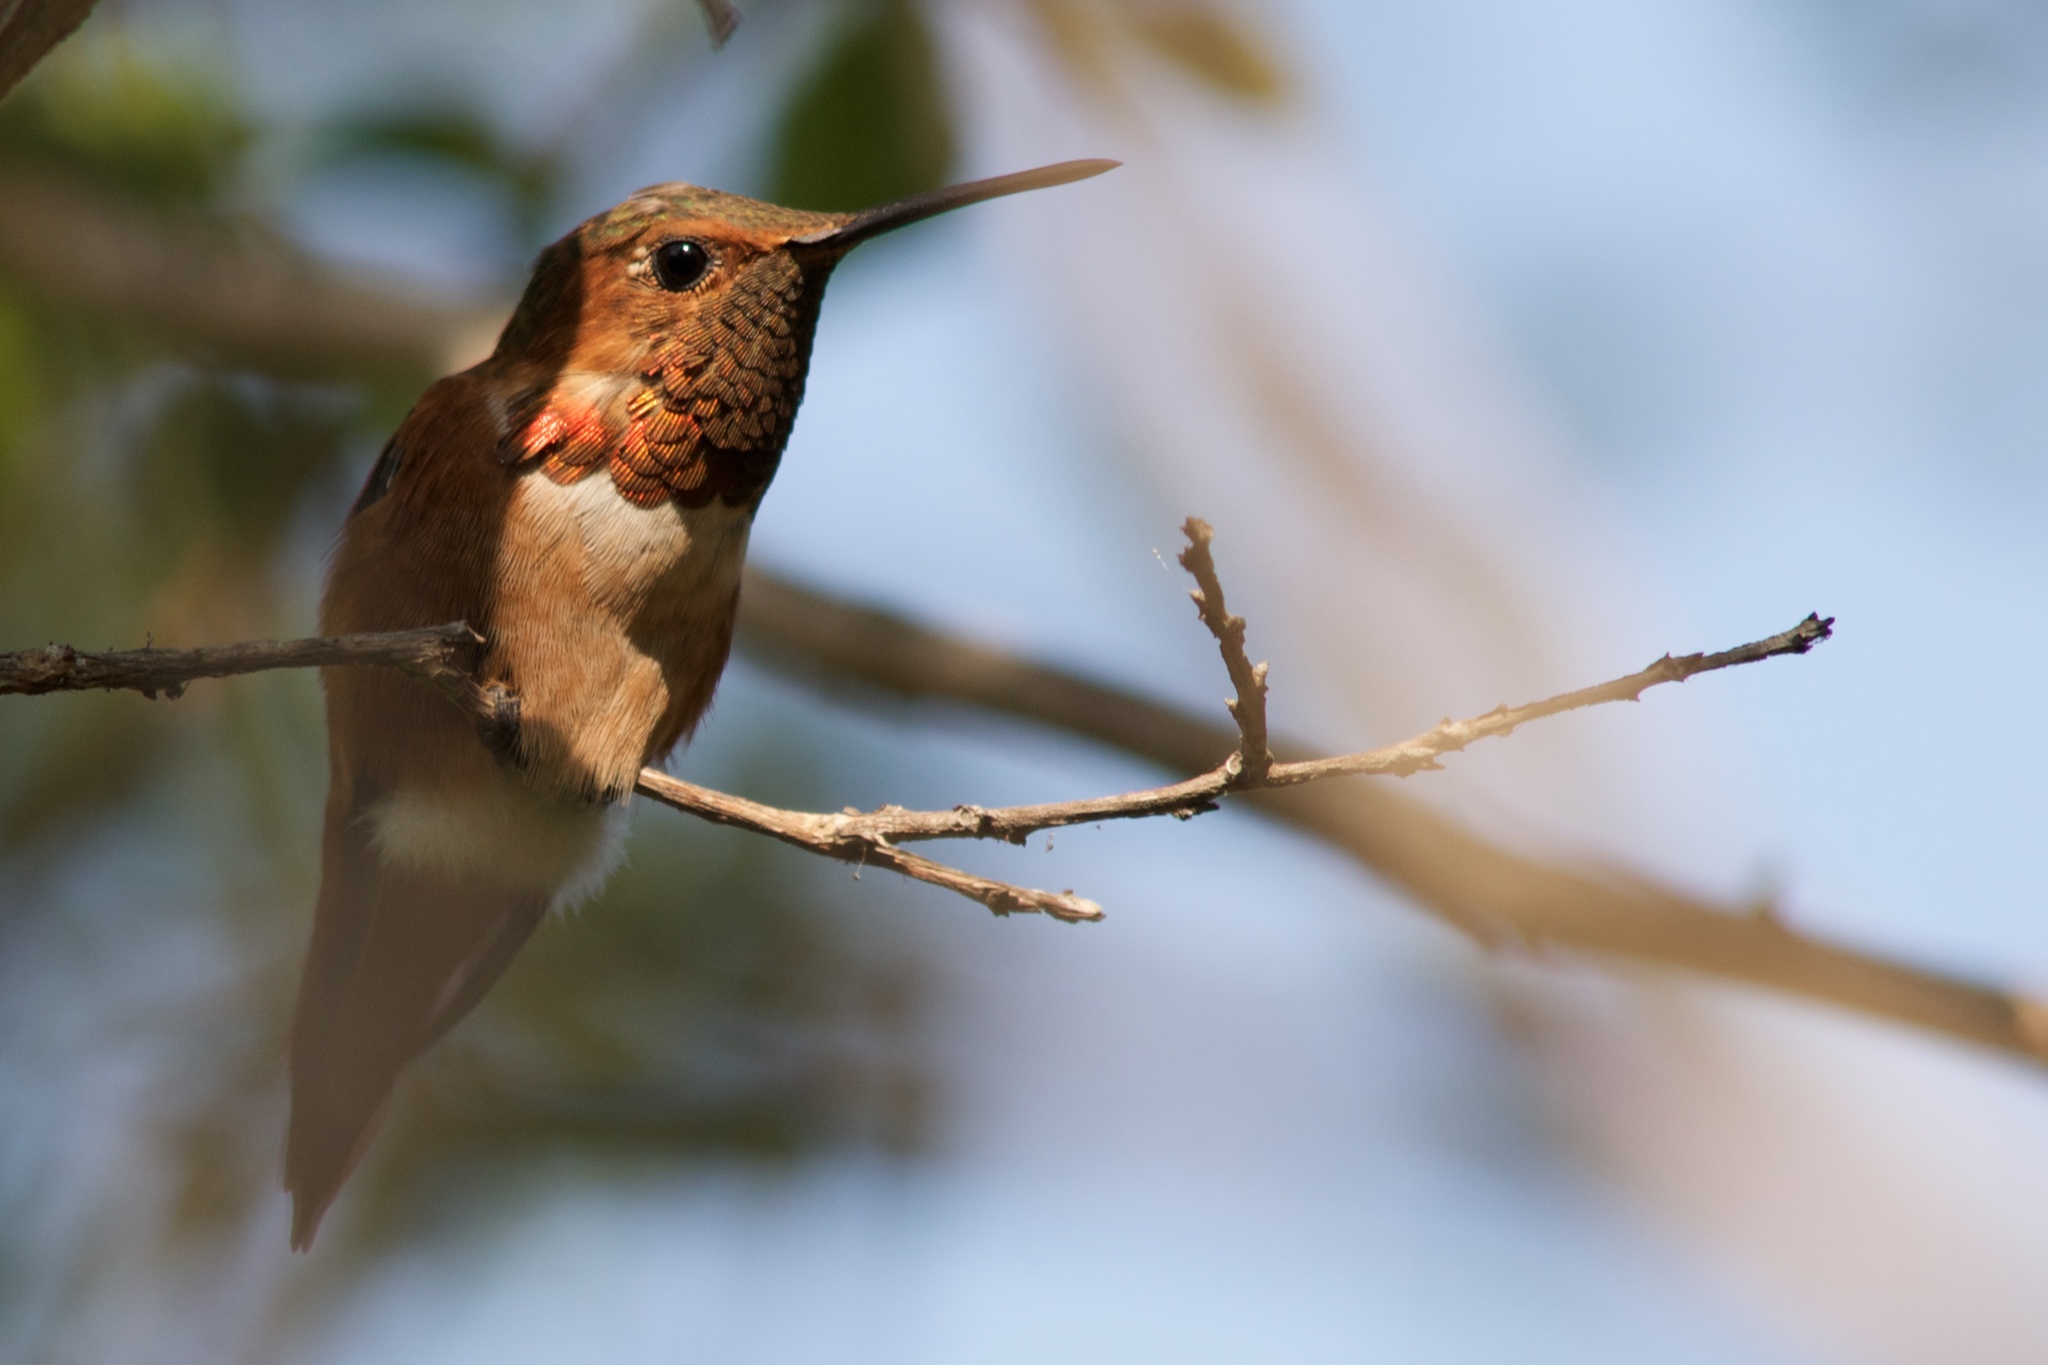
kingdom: Animalia
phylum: Chordata
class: Aves
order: Apodiformes
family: Trochilidae
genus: Selasphorus
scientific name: Selasphorus sasin
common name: Allen's hummingbird
